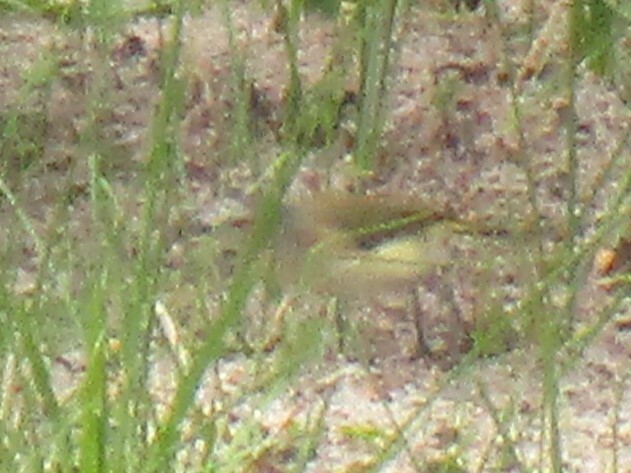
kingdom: Animalia
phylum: Chordata
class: Aves
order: Passeriformes
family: Acanthizidae
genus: Acanthiza
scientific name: Acanthiza chrysorrhoa
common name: Yellow-rumped thornbill
